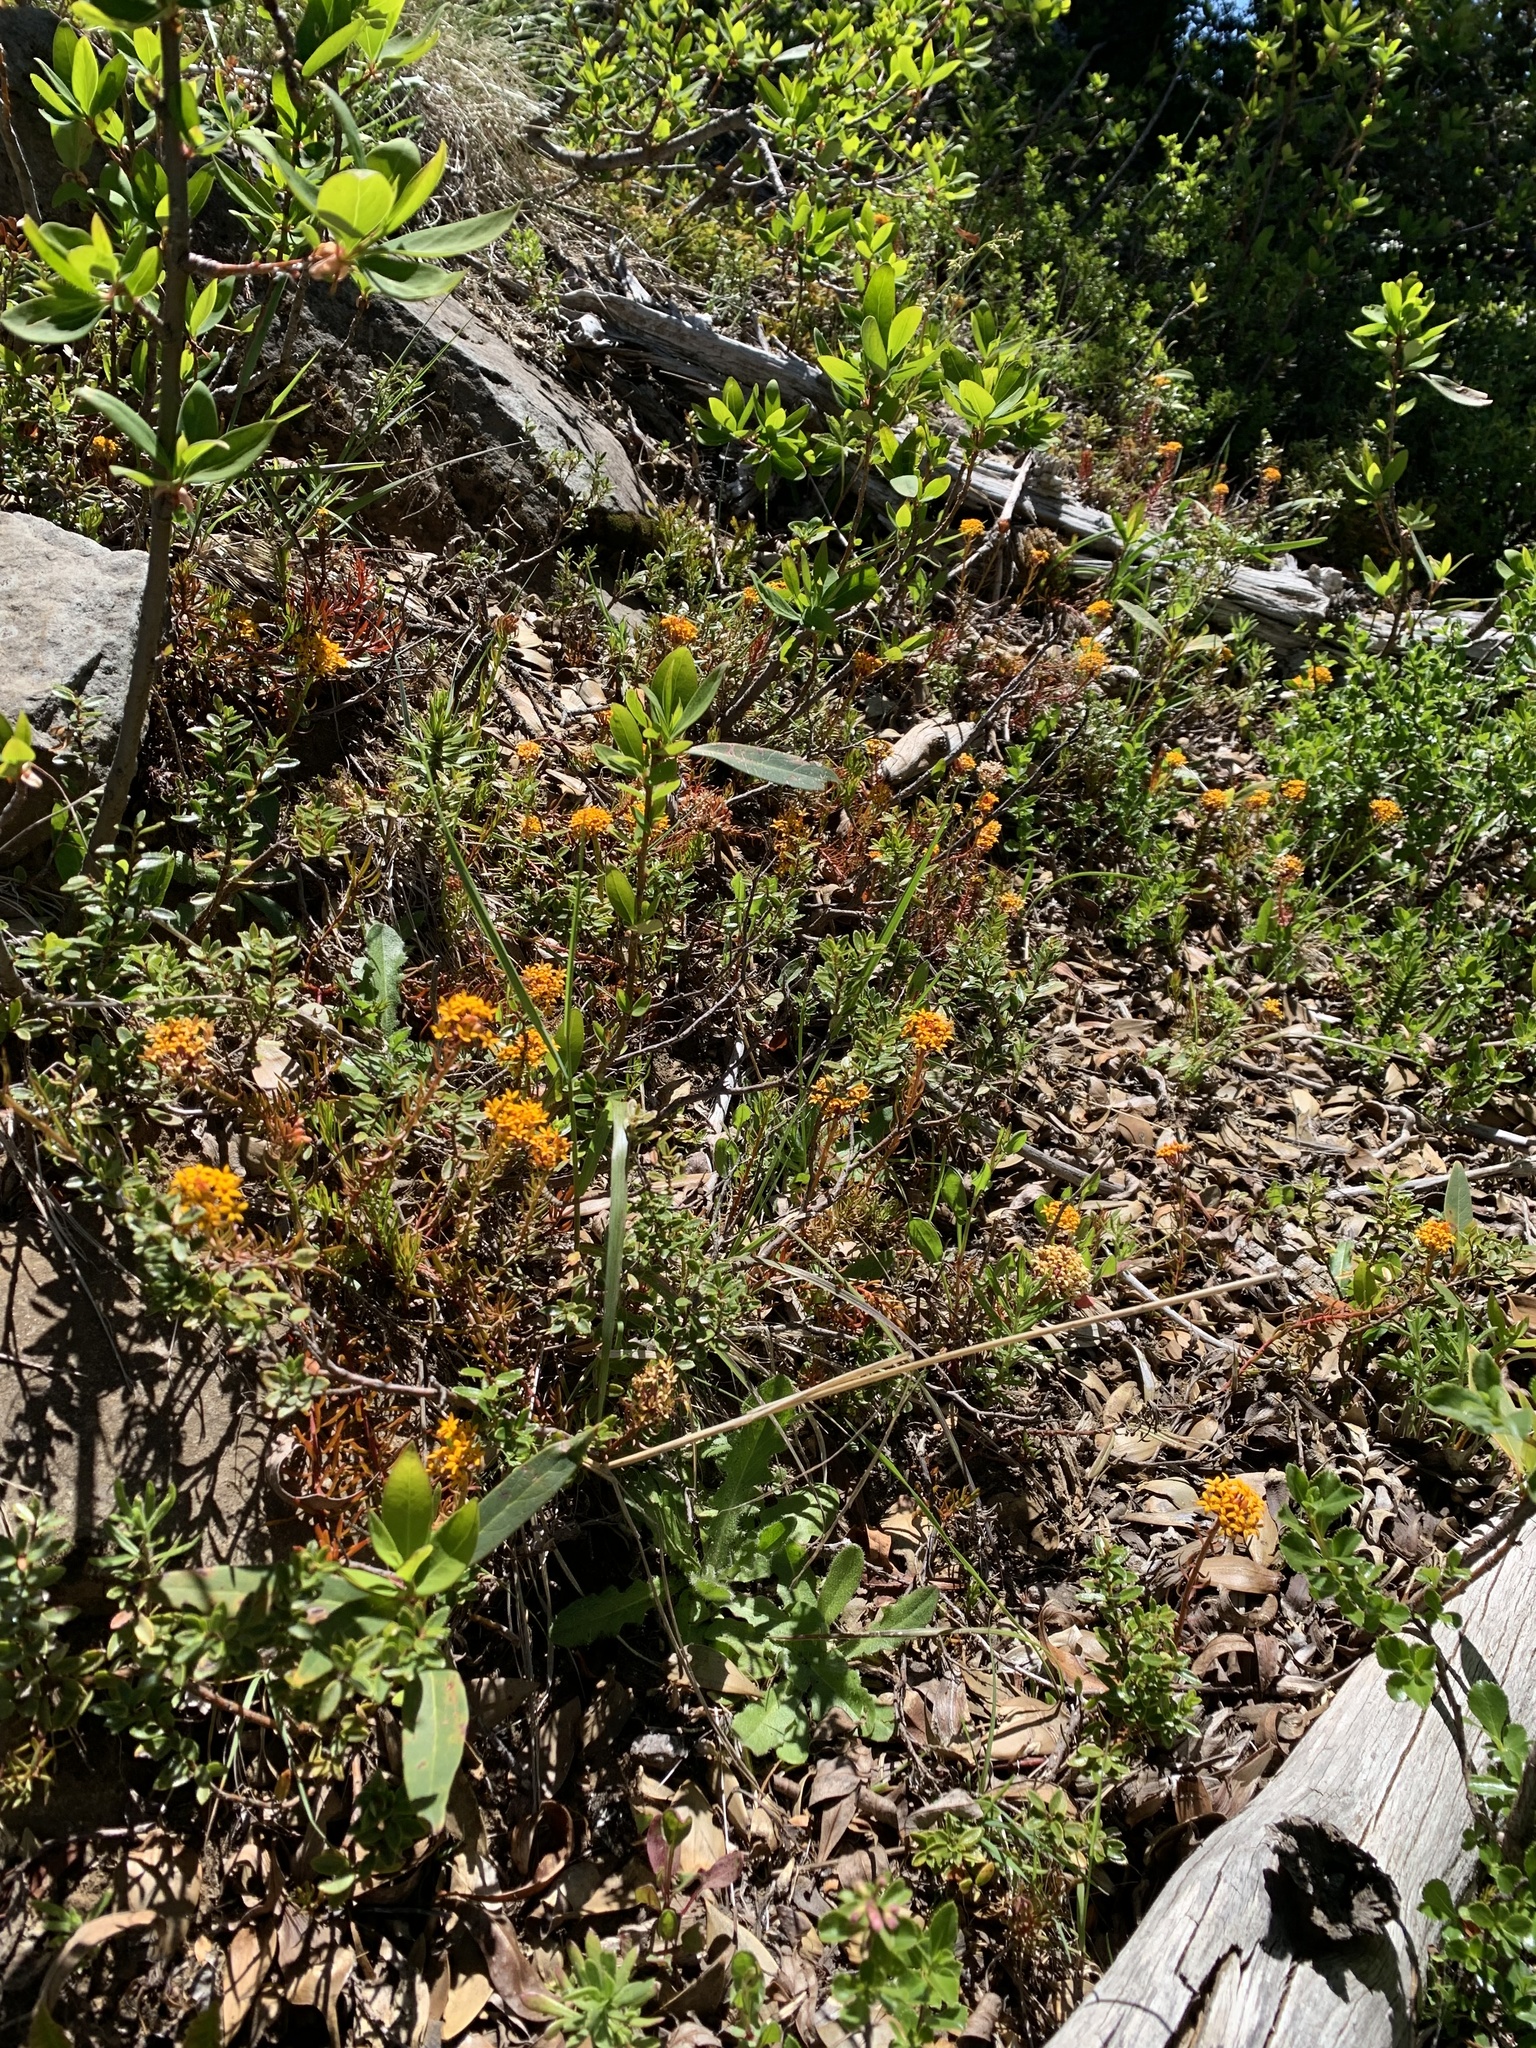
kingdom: Plantae
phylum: Tracheophyta
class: Magnoliopsida
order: Santalales
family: Schoepfiaceae
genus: Quinchamalium
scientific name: Quinchamalium chilense
